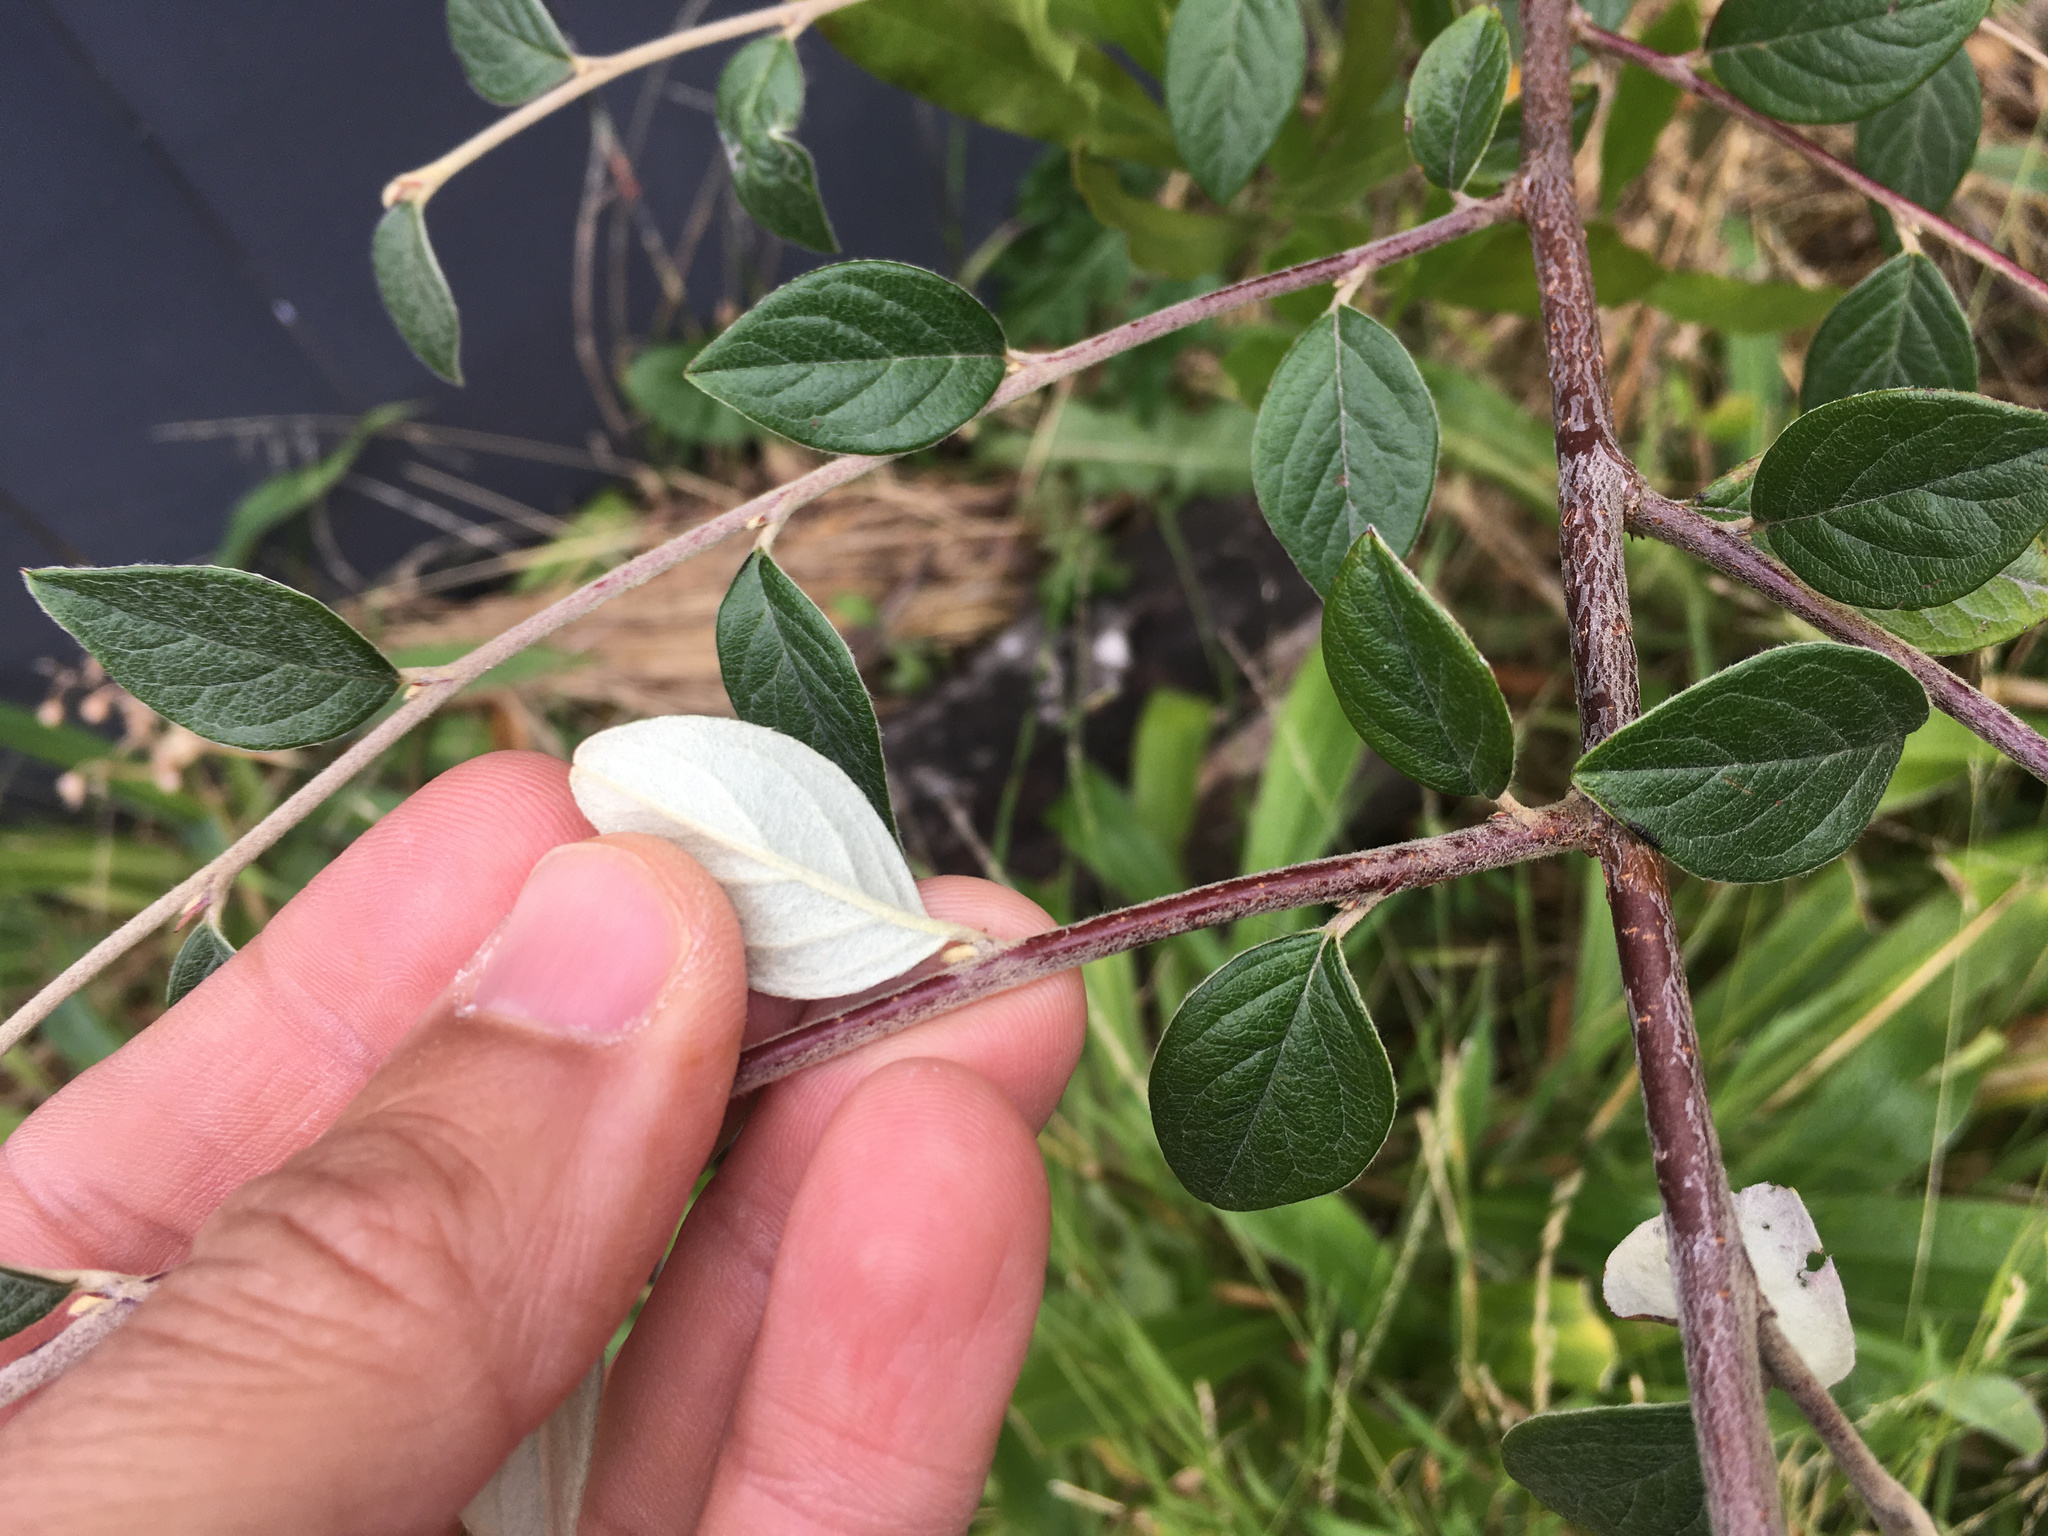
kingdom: Plantae
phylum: Tracheophyta
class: Magnoliopsida
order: Rosales
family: Rosaceae
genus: Cotoneaster
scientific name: Cotoneaster franchetii
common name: Franchet's cotoneaster
